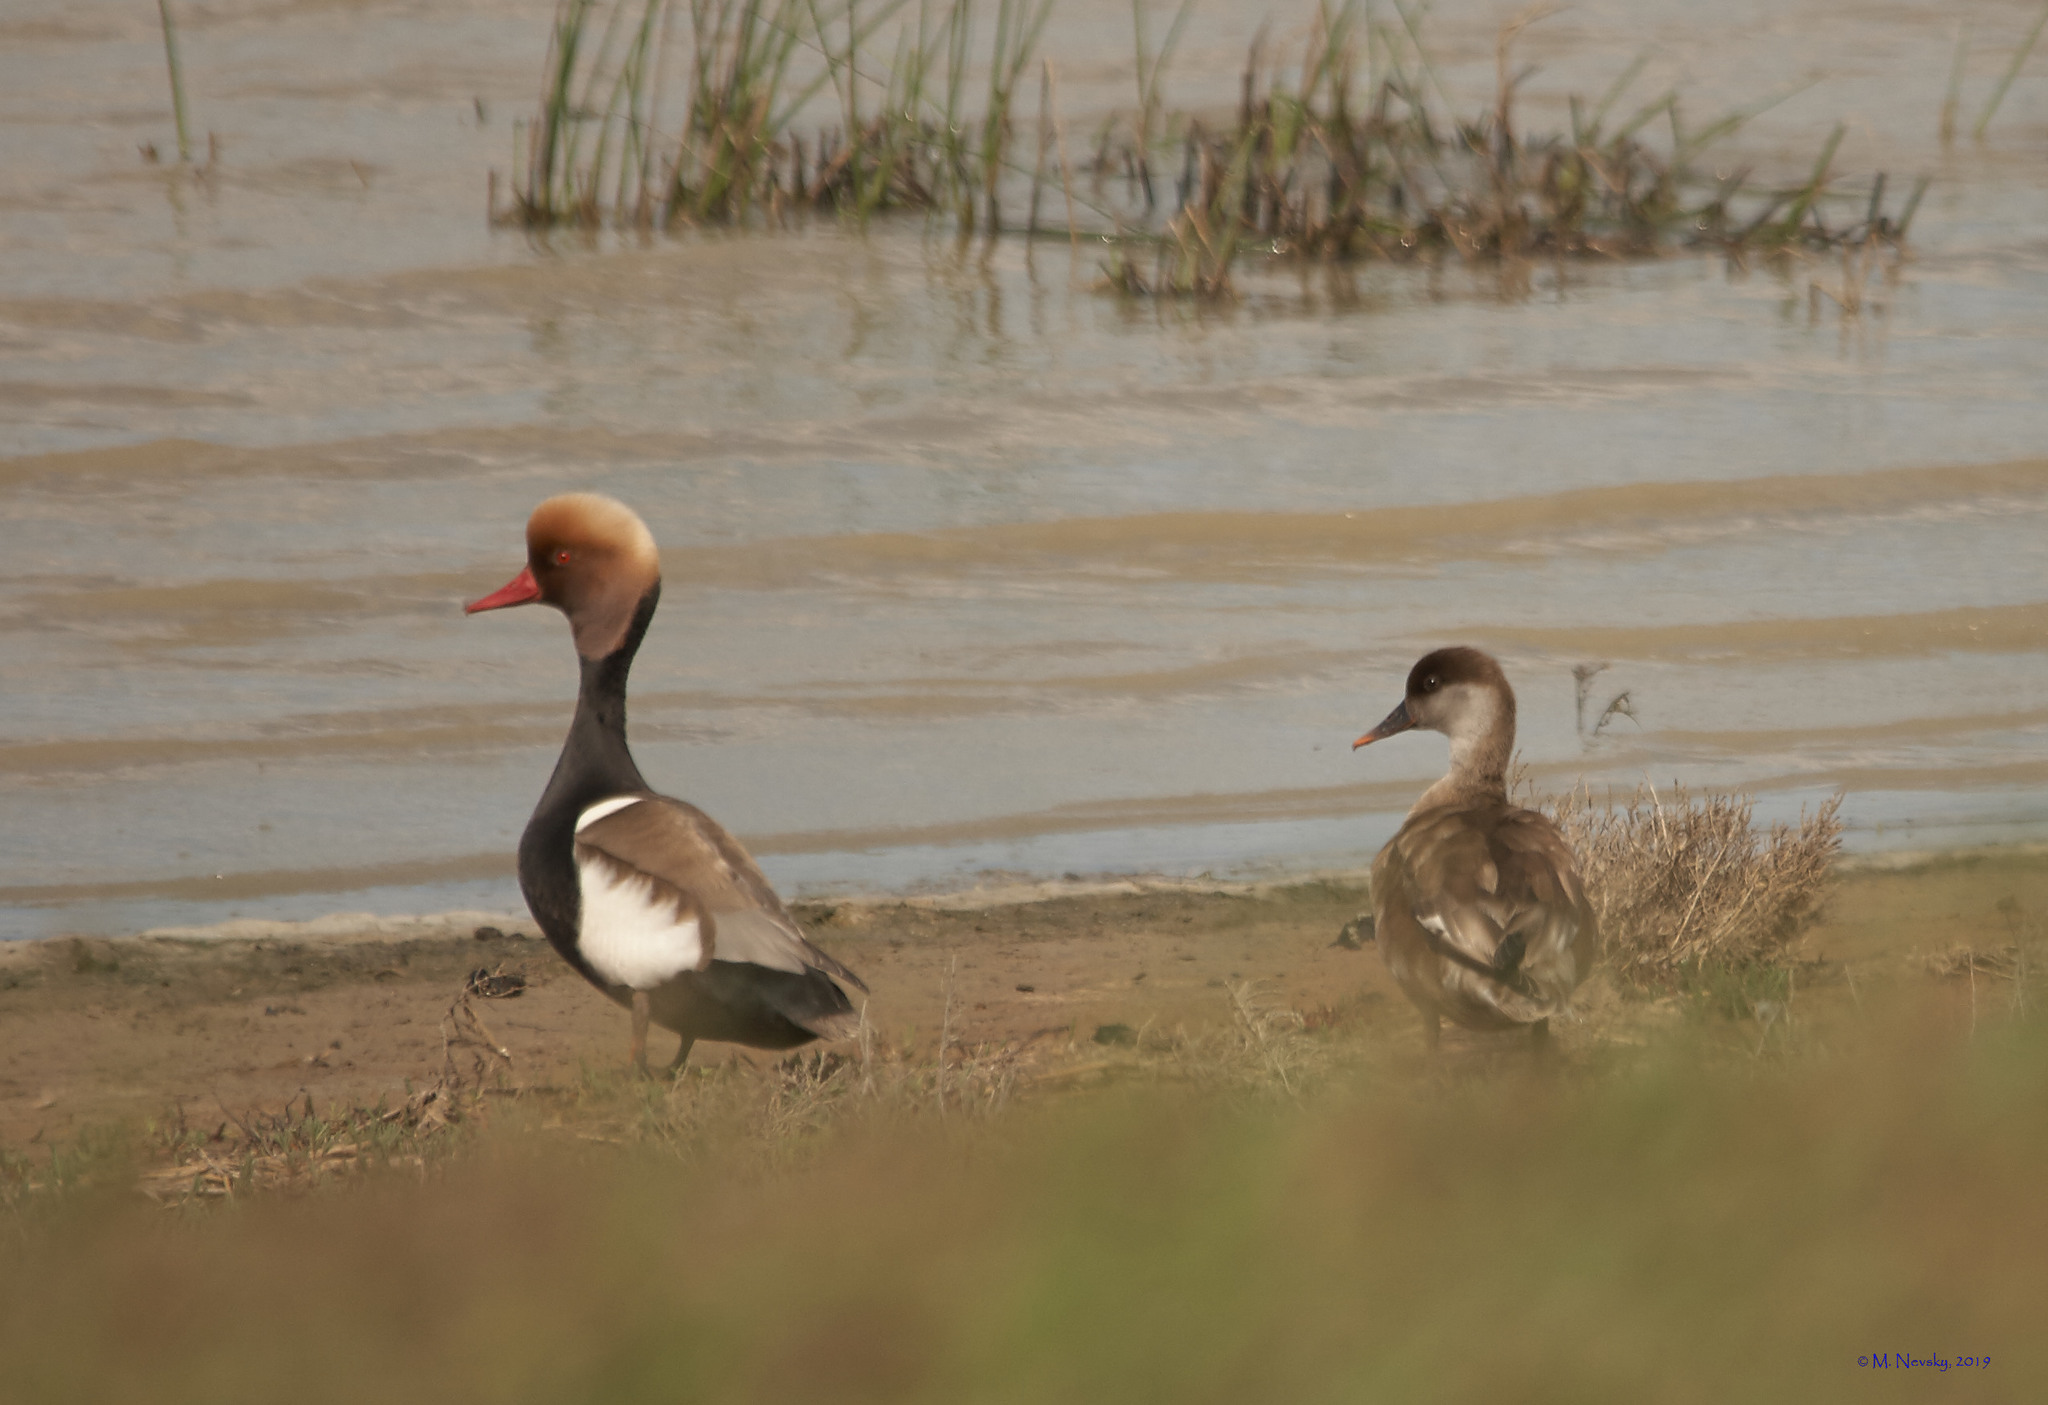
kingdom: Animalia
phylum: Chordata
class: Aves
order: Anseriformes
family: Anatidae
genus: Netta
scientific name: Netta rufina
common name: Red-crested pochard
